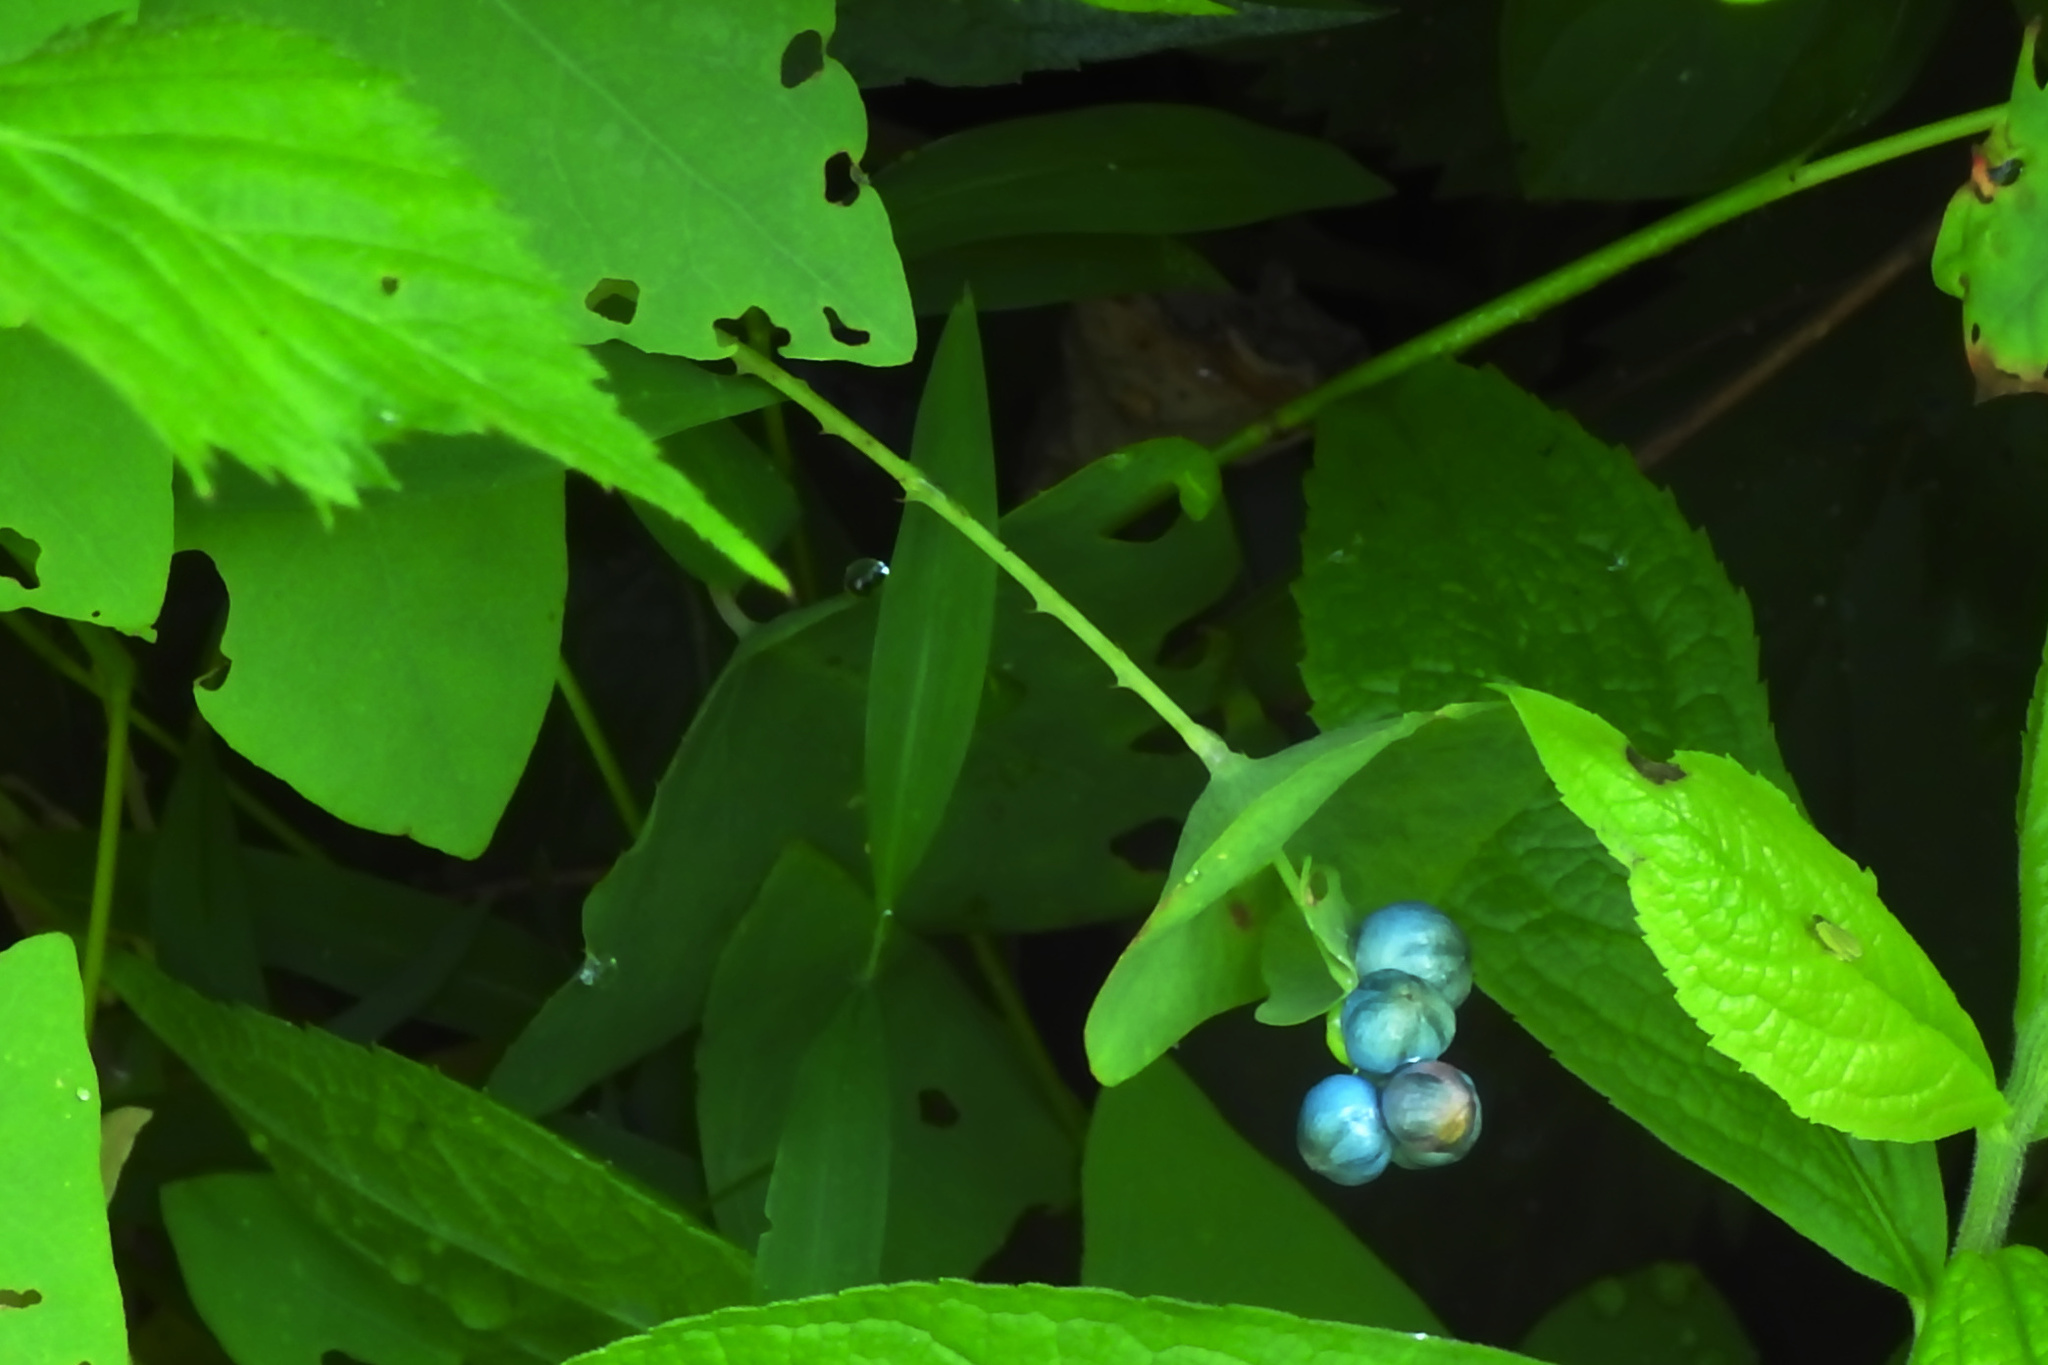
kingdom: Plantae
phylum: Tracheophyta
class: Magnoliopsida
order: Caryophyllales
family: Polygonaceae
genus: Persicaria
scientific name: Persicaria perfoliata
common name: Asiatic tearthumb
